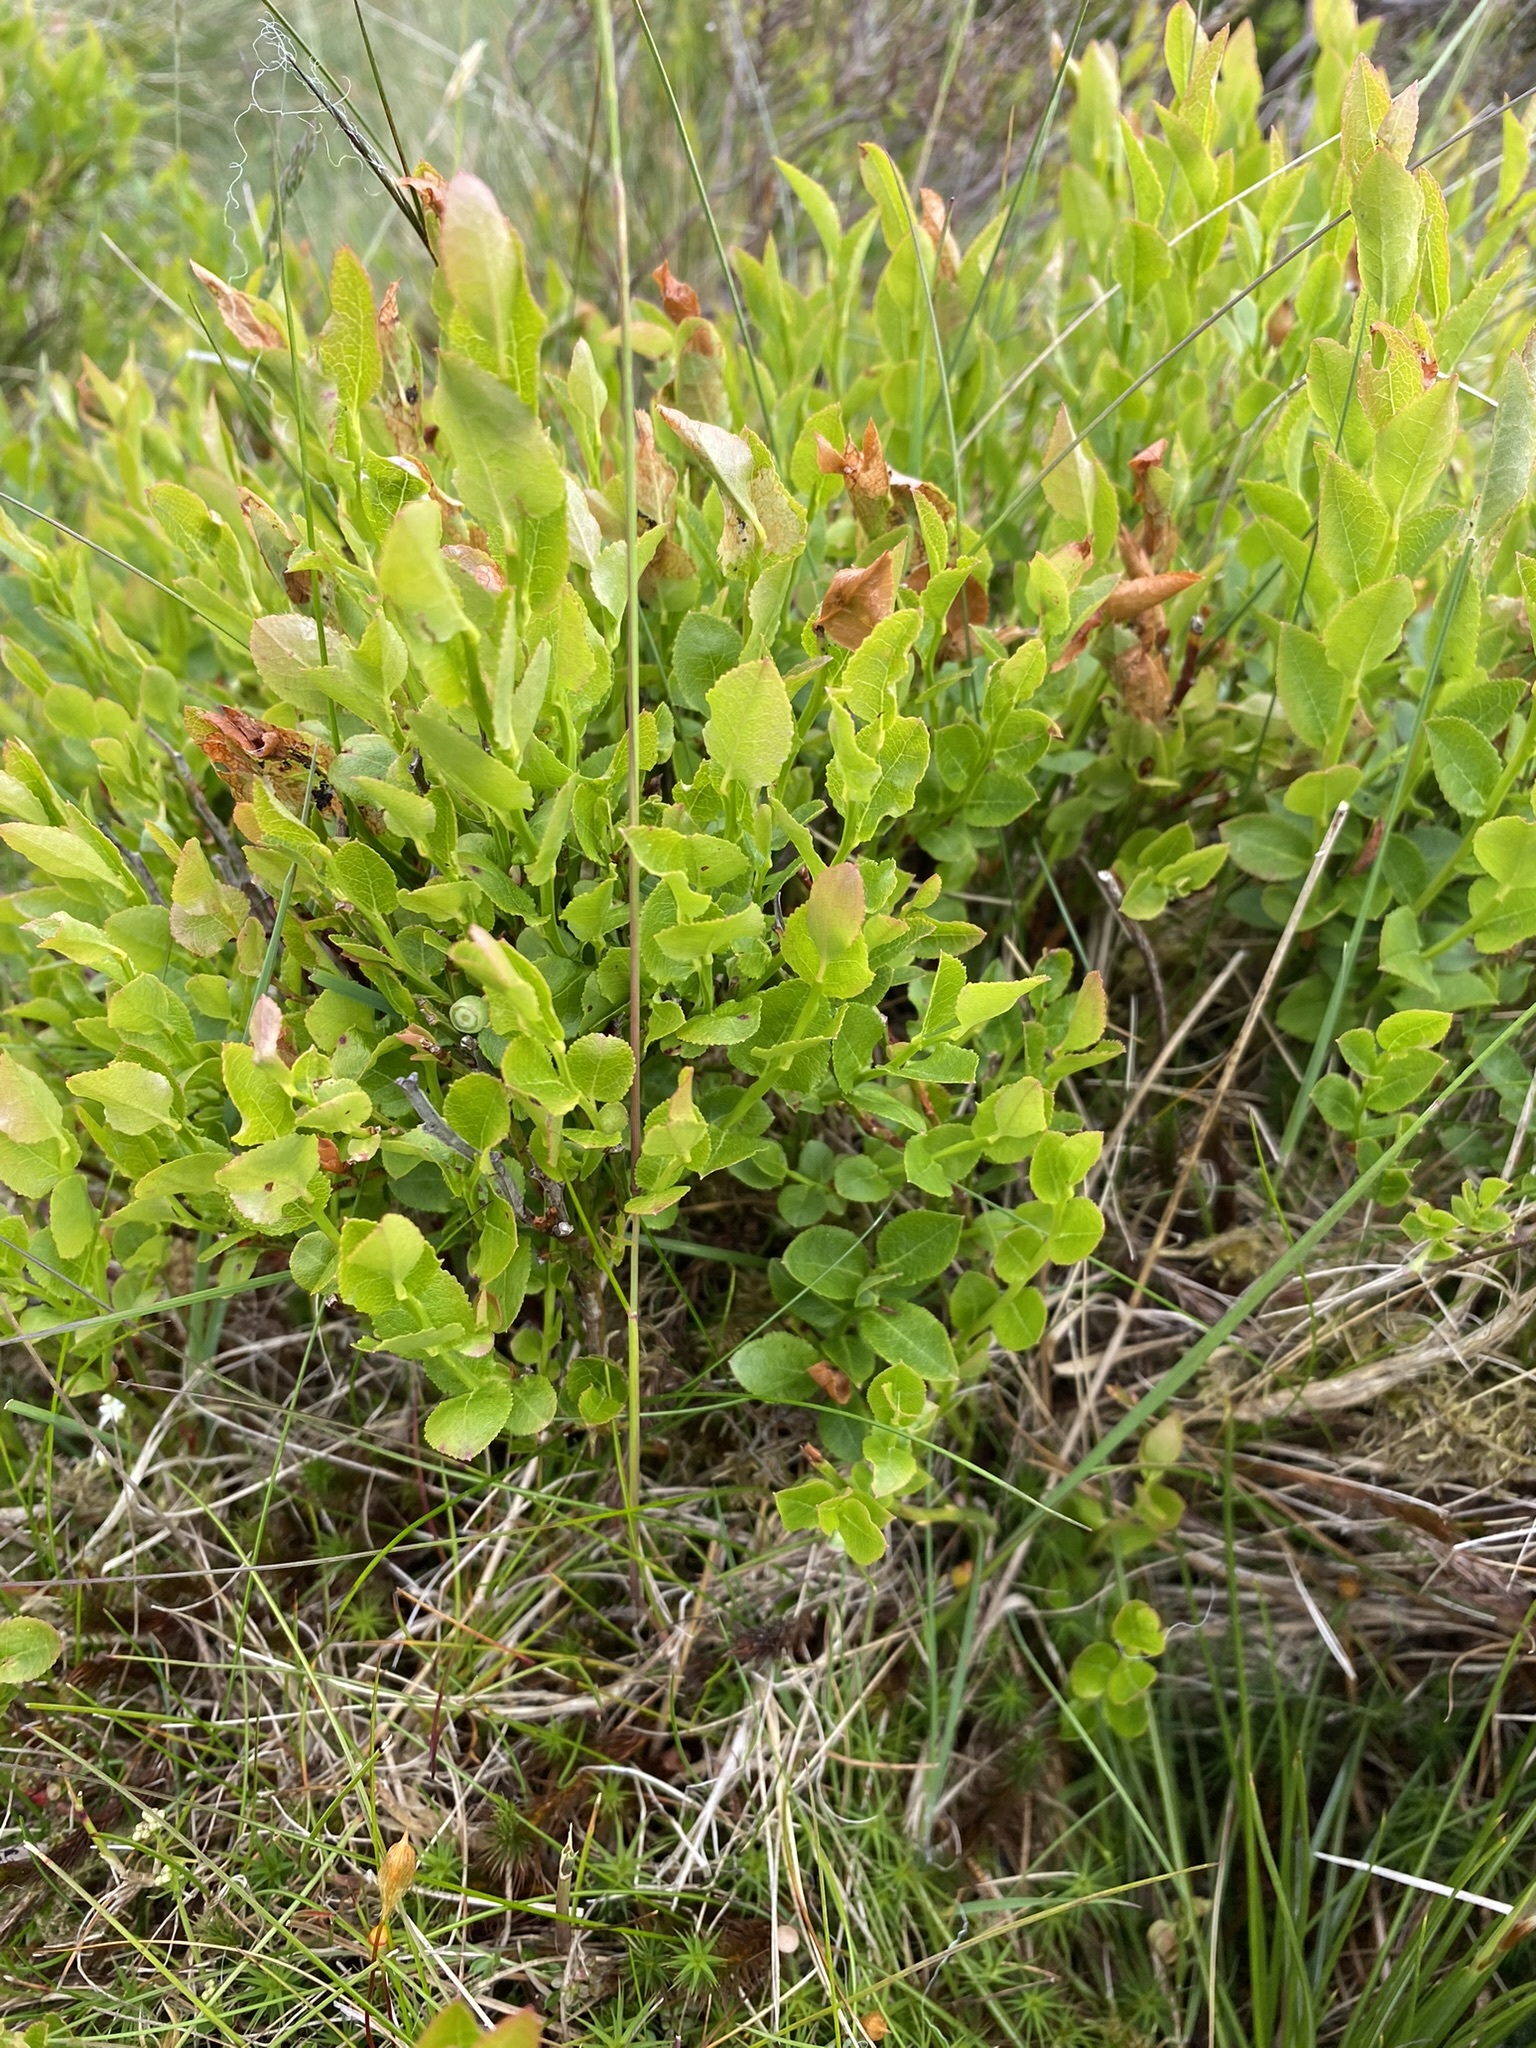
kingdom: Plantae
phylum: Tracheophyta
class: Magnoliopsida
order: Ericales
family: Ericaceae
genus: Vaccinium
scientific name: Vaccinium myrtillus
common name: Bilberry
